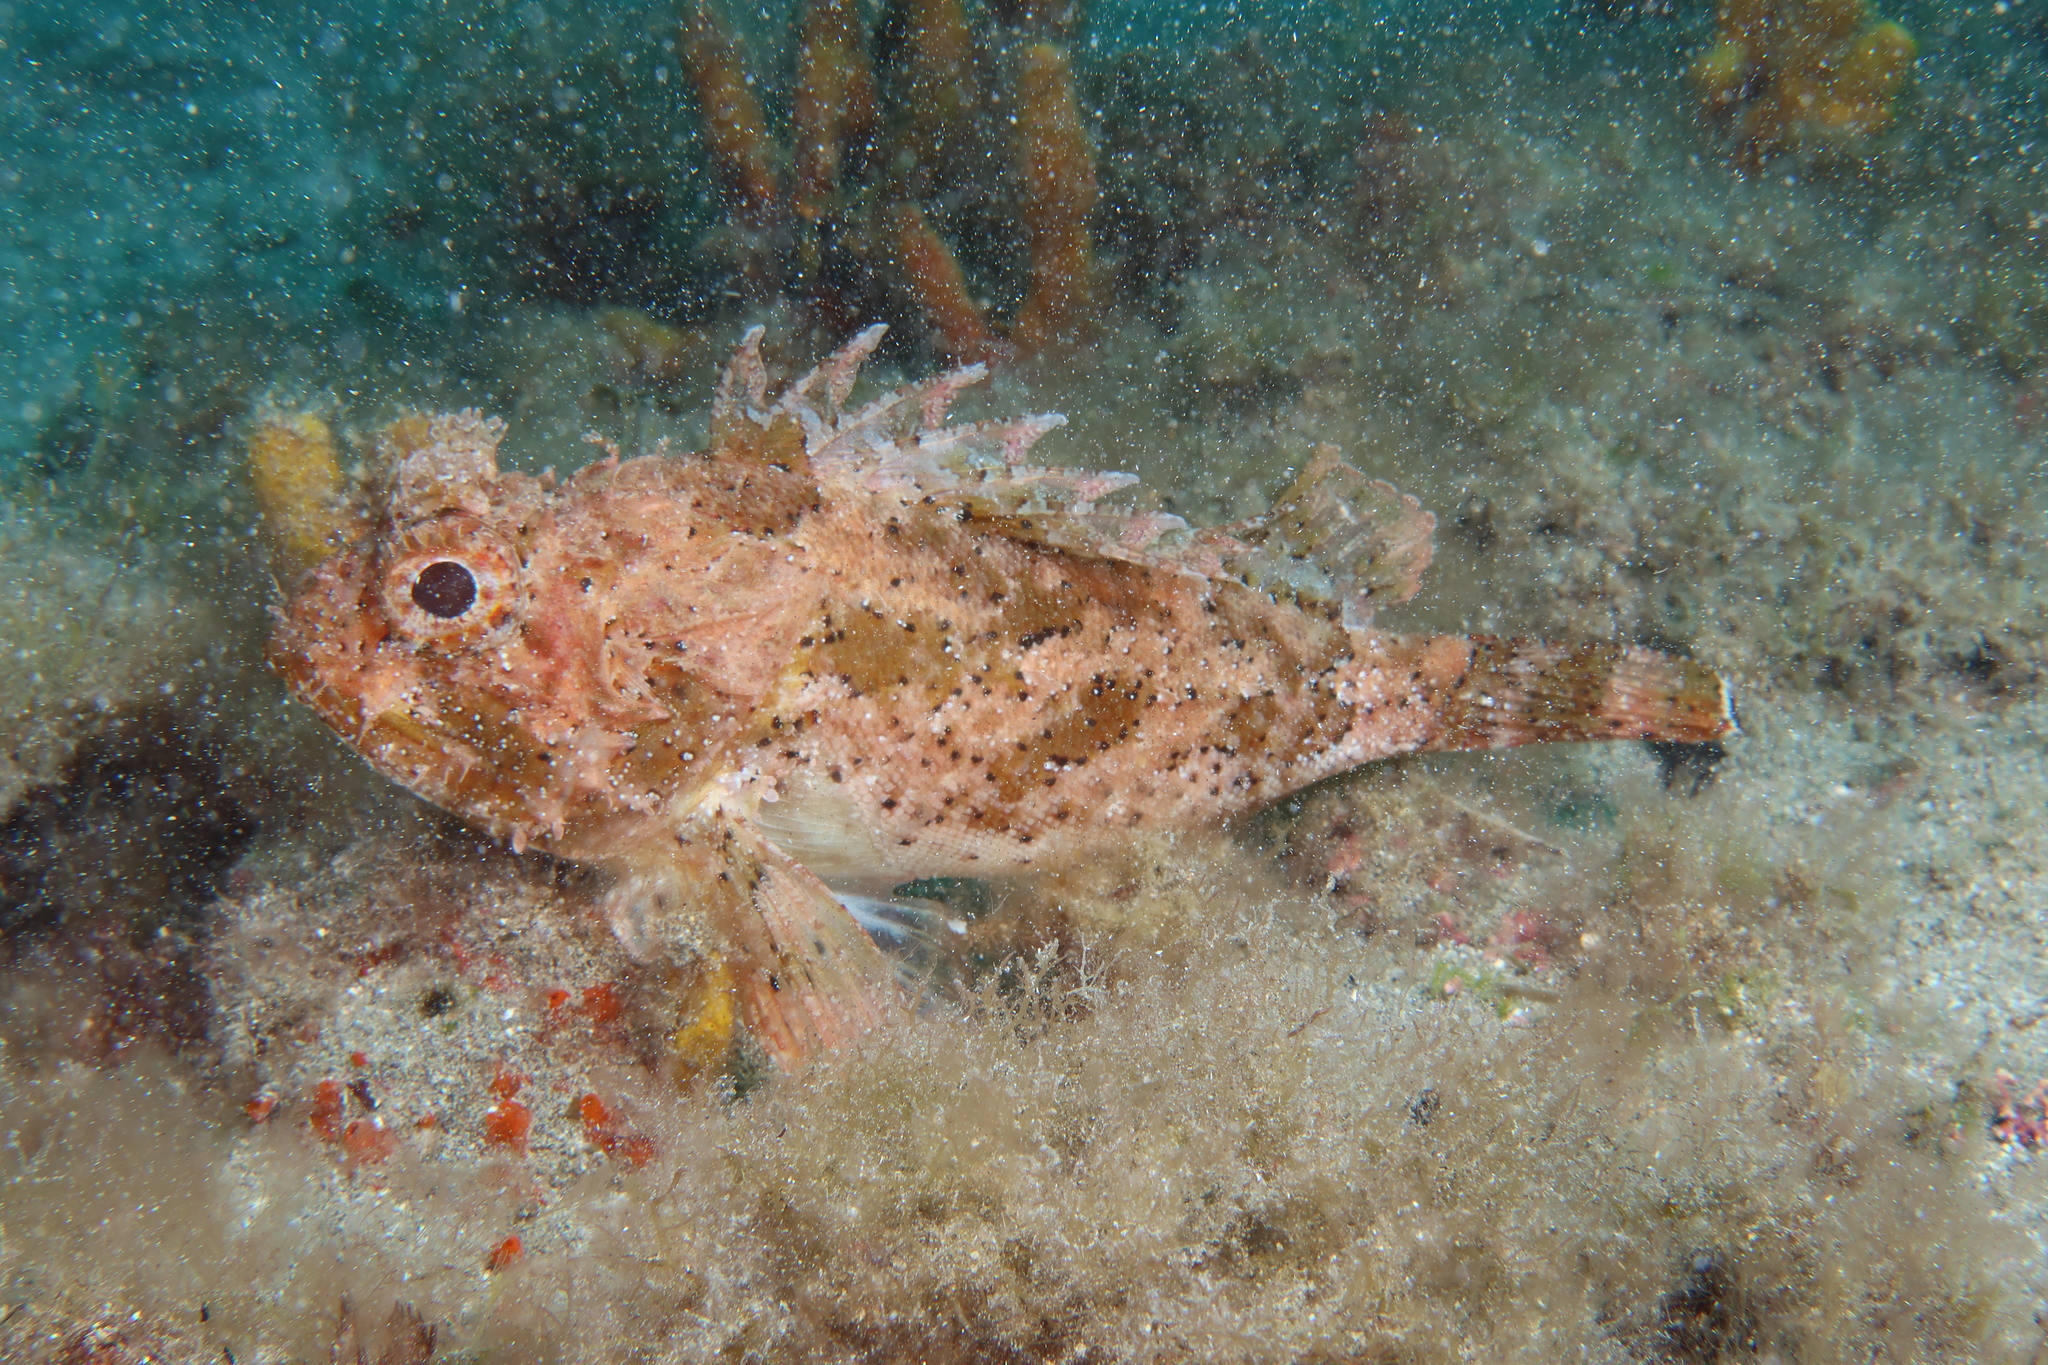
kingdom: Animalia
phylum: Chordata
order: Scorpaeniformes
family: Scorpaenidae
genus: Scorpaena
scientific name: Scorpaena porcus
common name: Black scorpionfish
